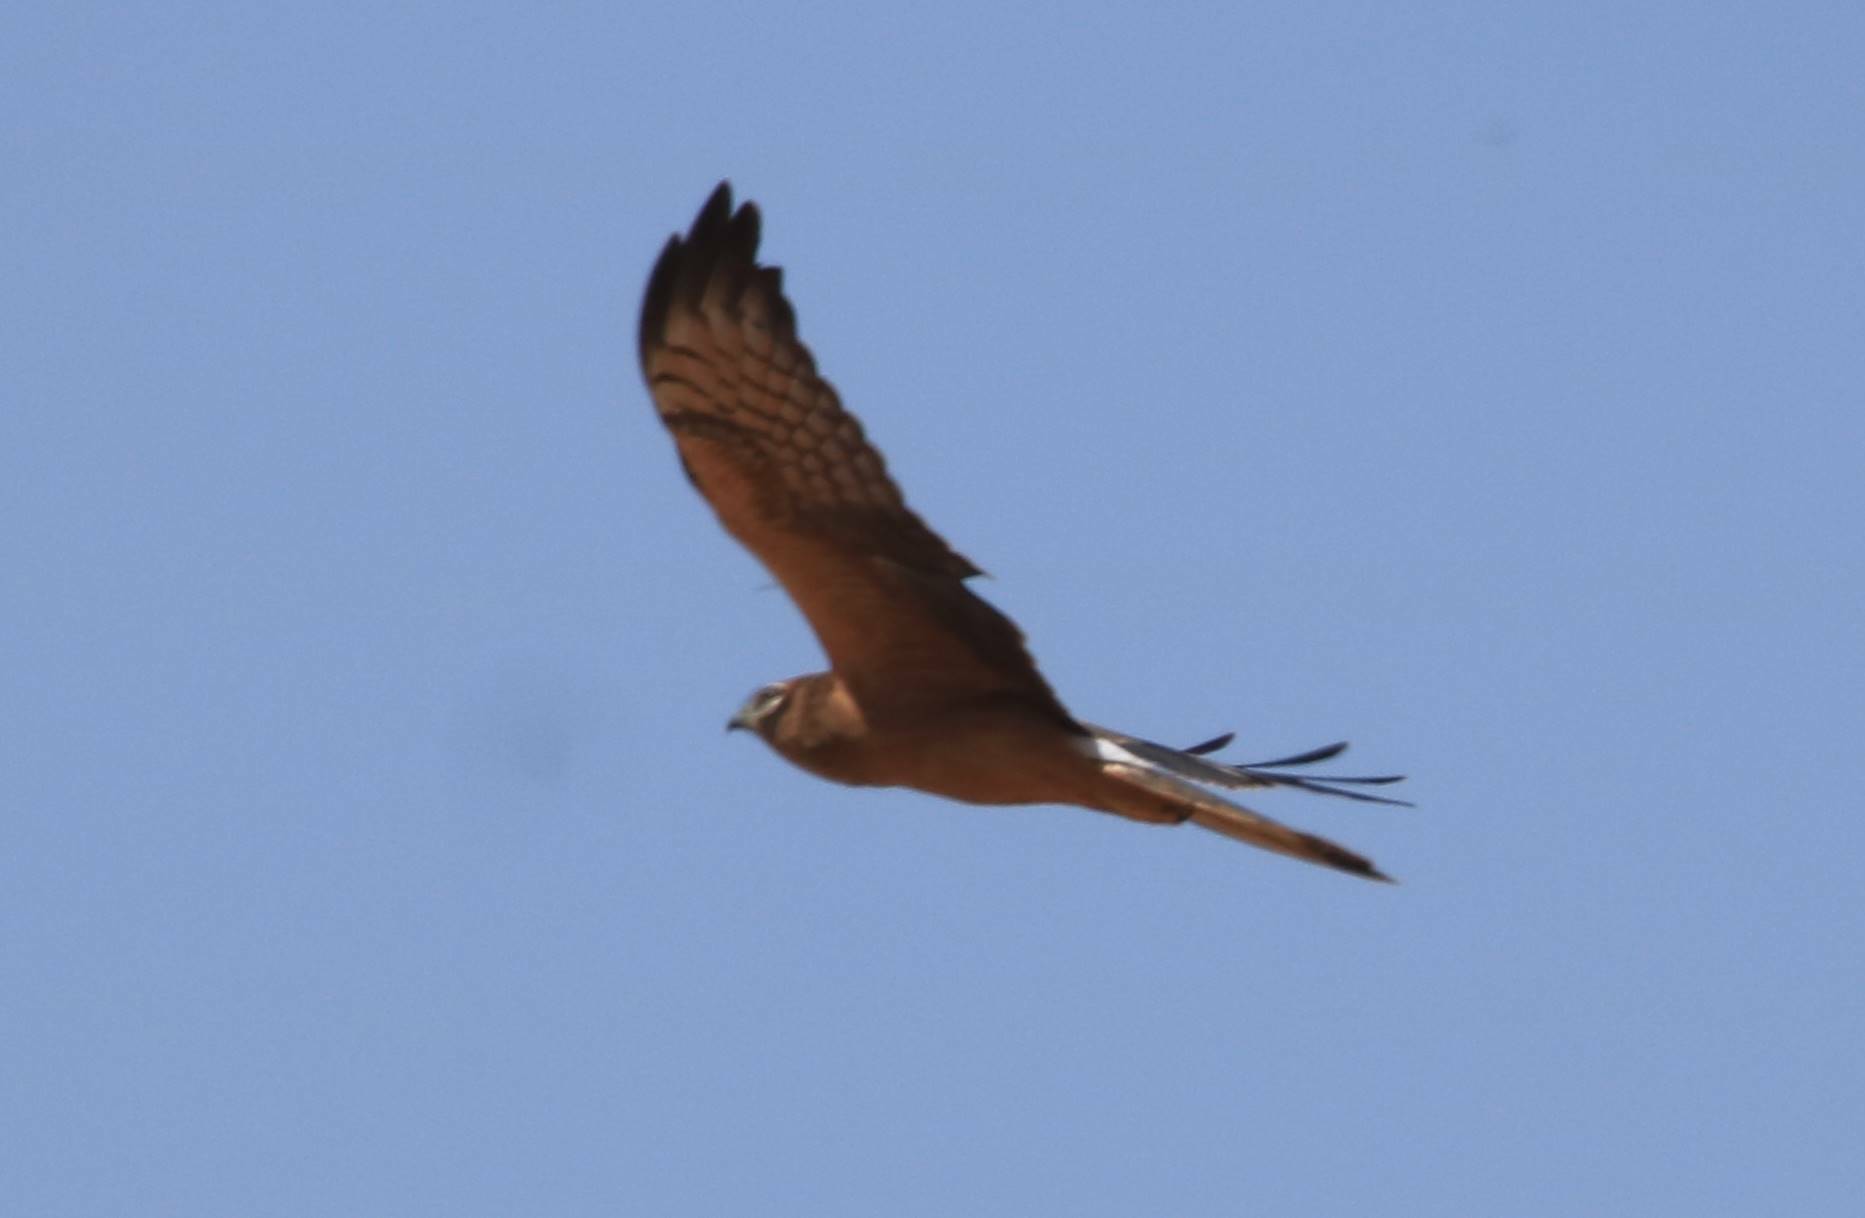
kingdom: Animalia
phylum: Chordata
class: Aves
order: Accipitriformes
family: Accipitridae
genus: Circus
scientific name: Circus pygargus
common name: Montagu's harrier
